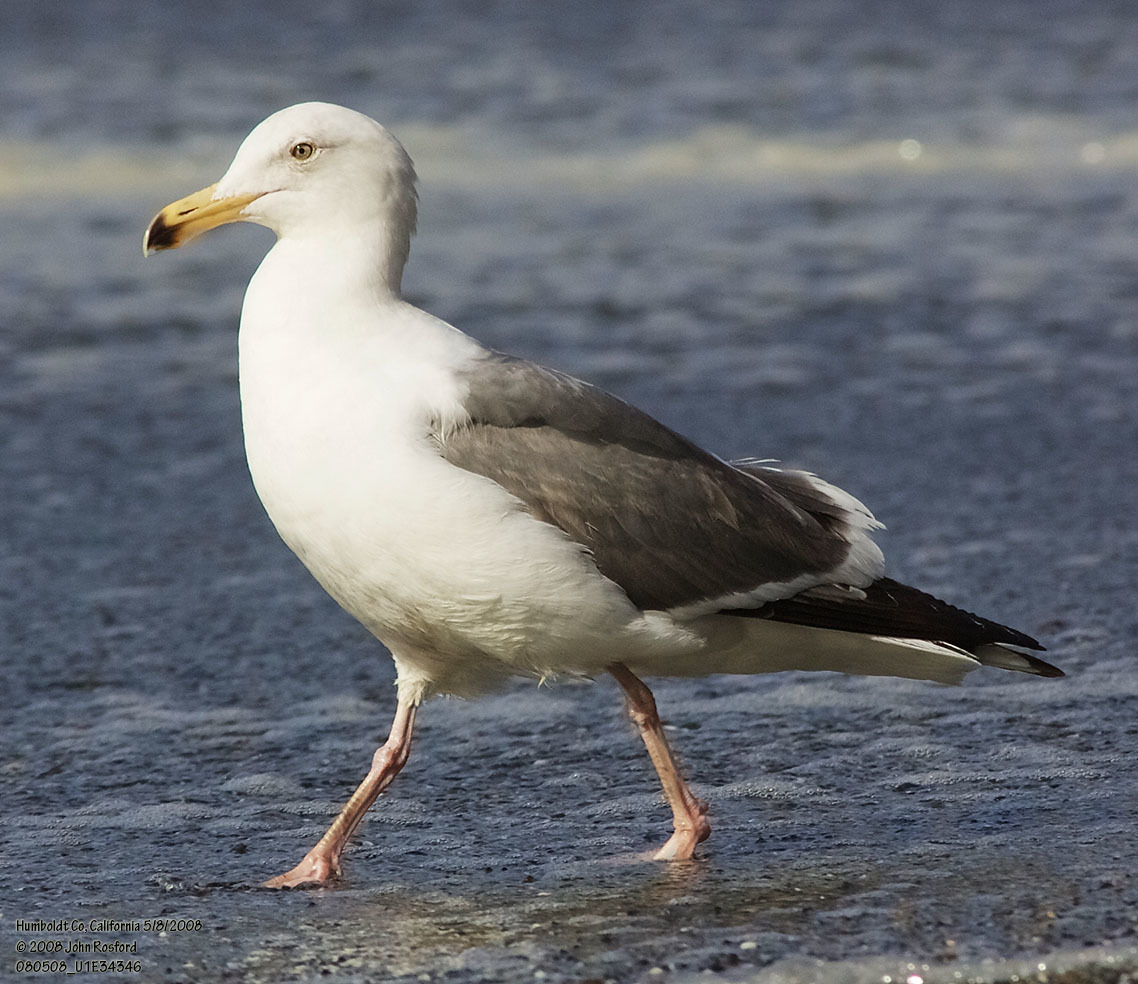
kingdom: Animalia
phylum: Chordata
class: Aves
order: Charadriiformes
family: Laridae
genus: Larus
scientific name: Larus occidentalis
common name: Western gull
